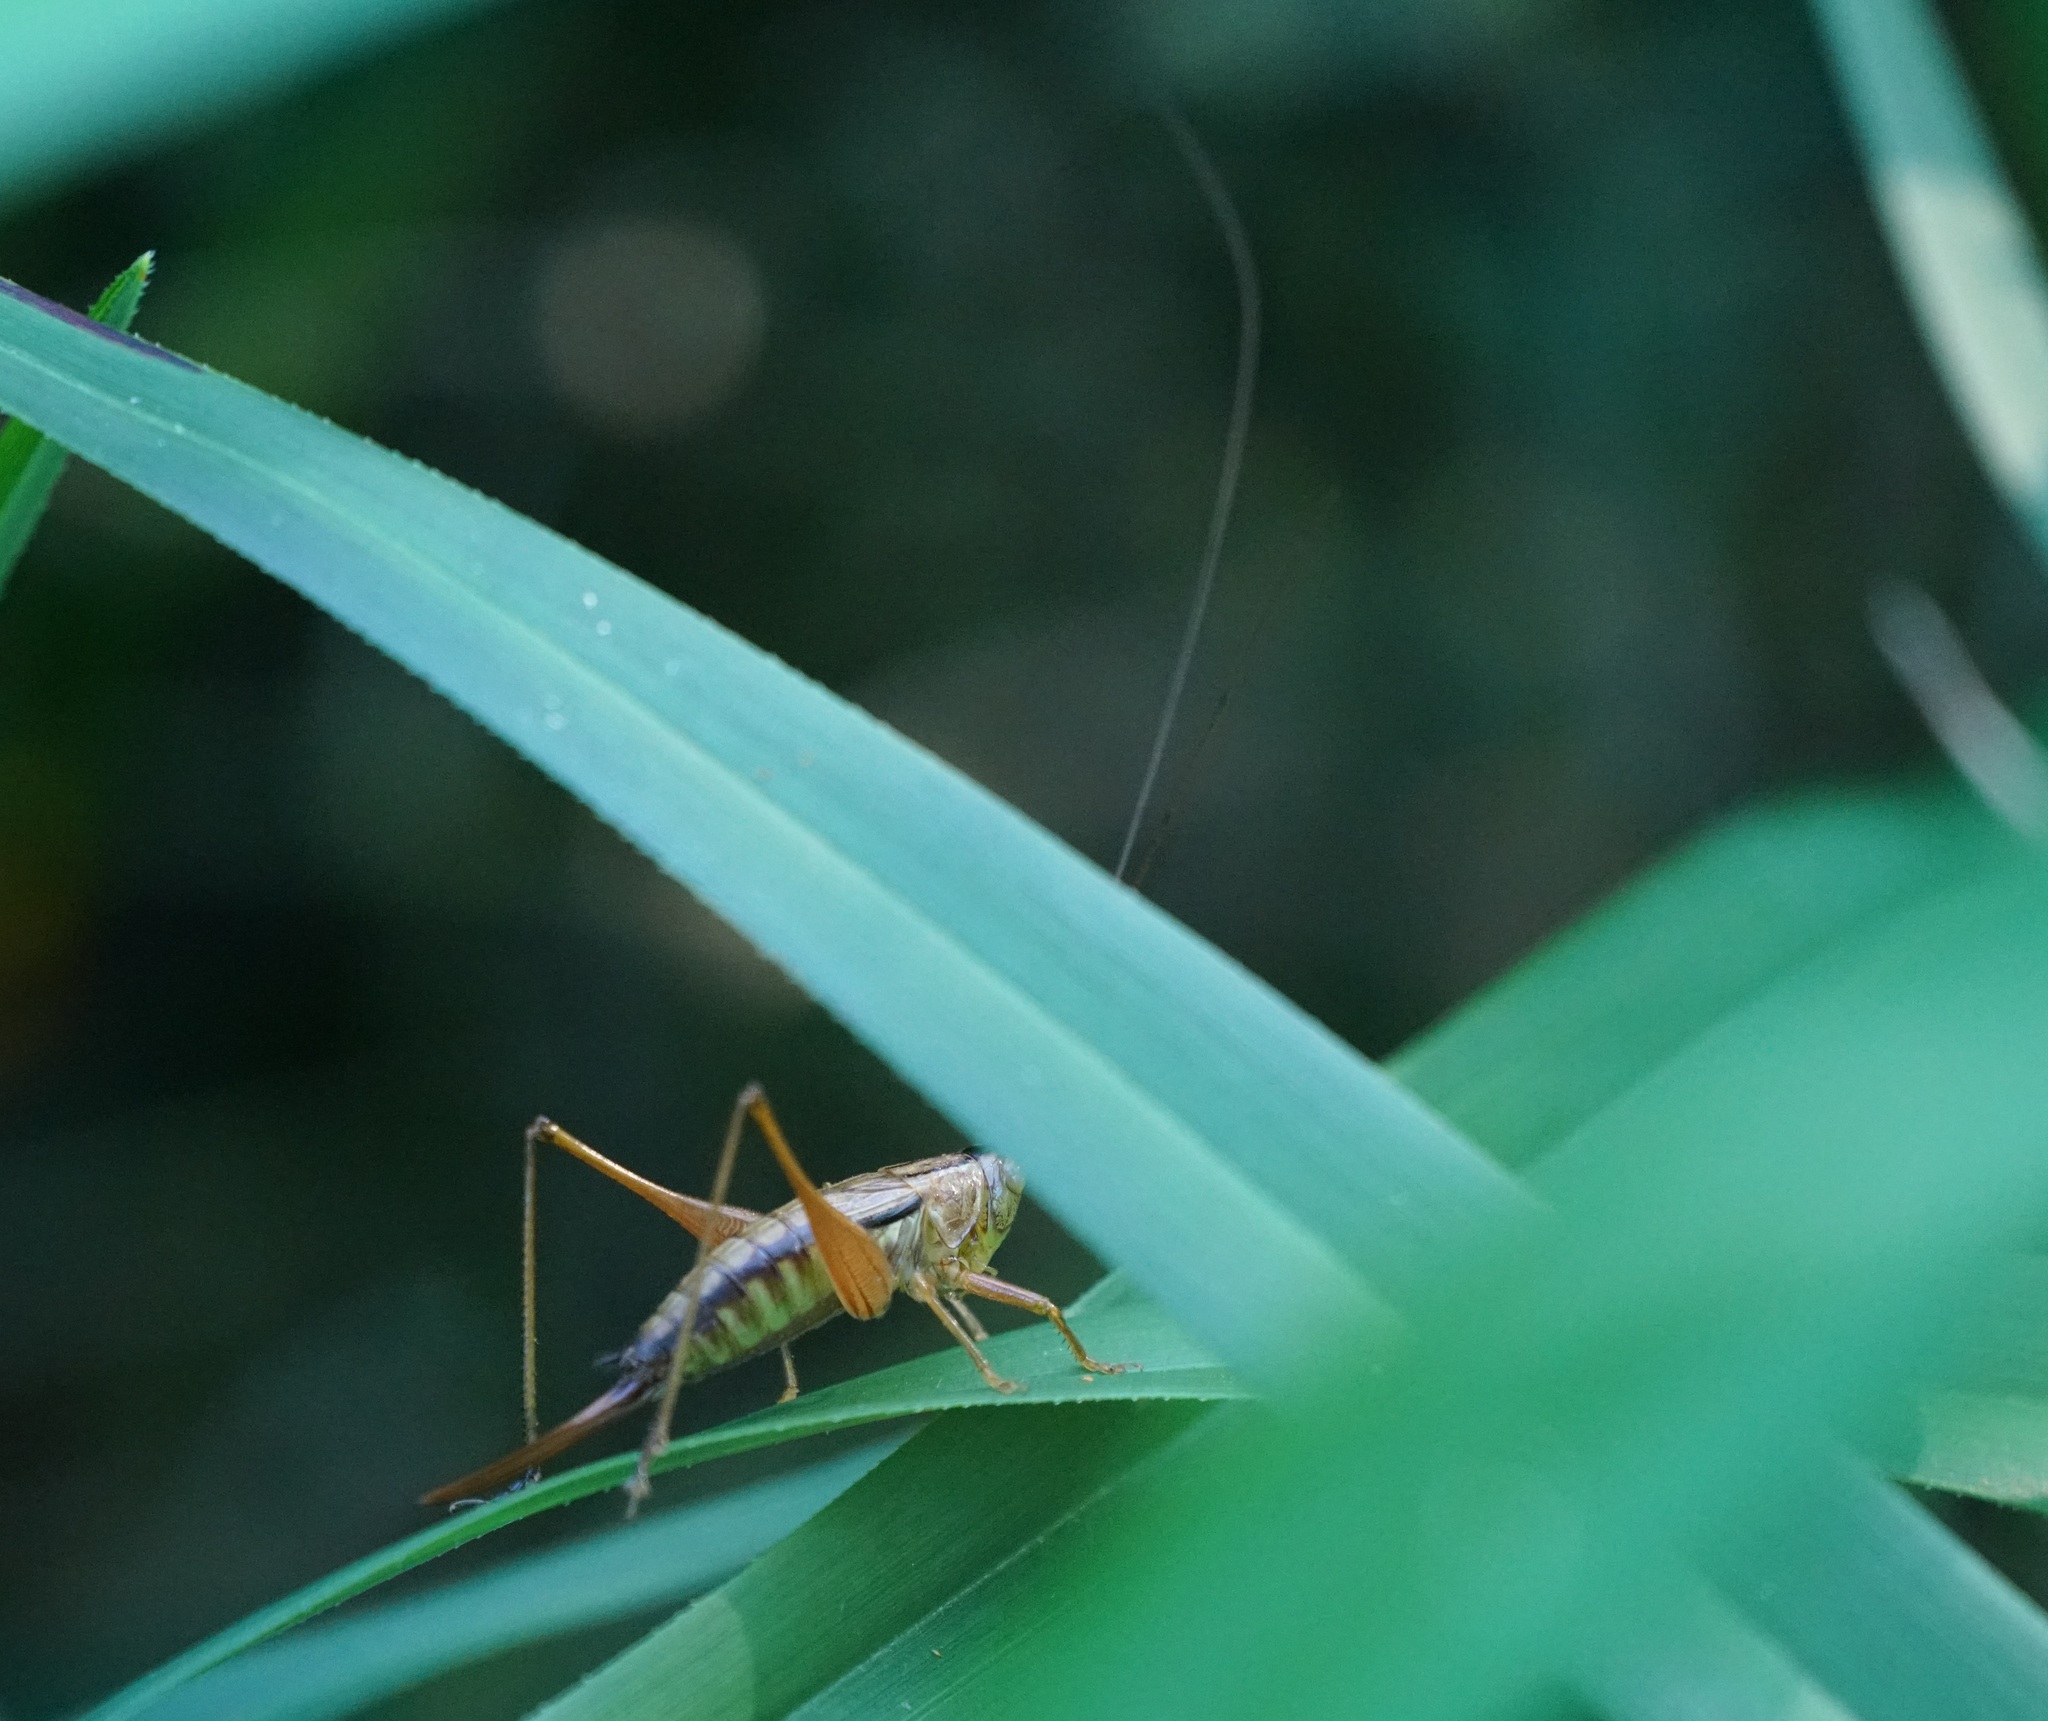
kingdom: Animalia
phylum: Arthropoda
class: Insecta
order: Orthoptera
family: Tettigoniidae
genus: Conocephalus
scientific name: Conocephalus semivittatus
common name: Blackish meadow katydid
